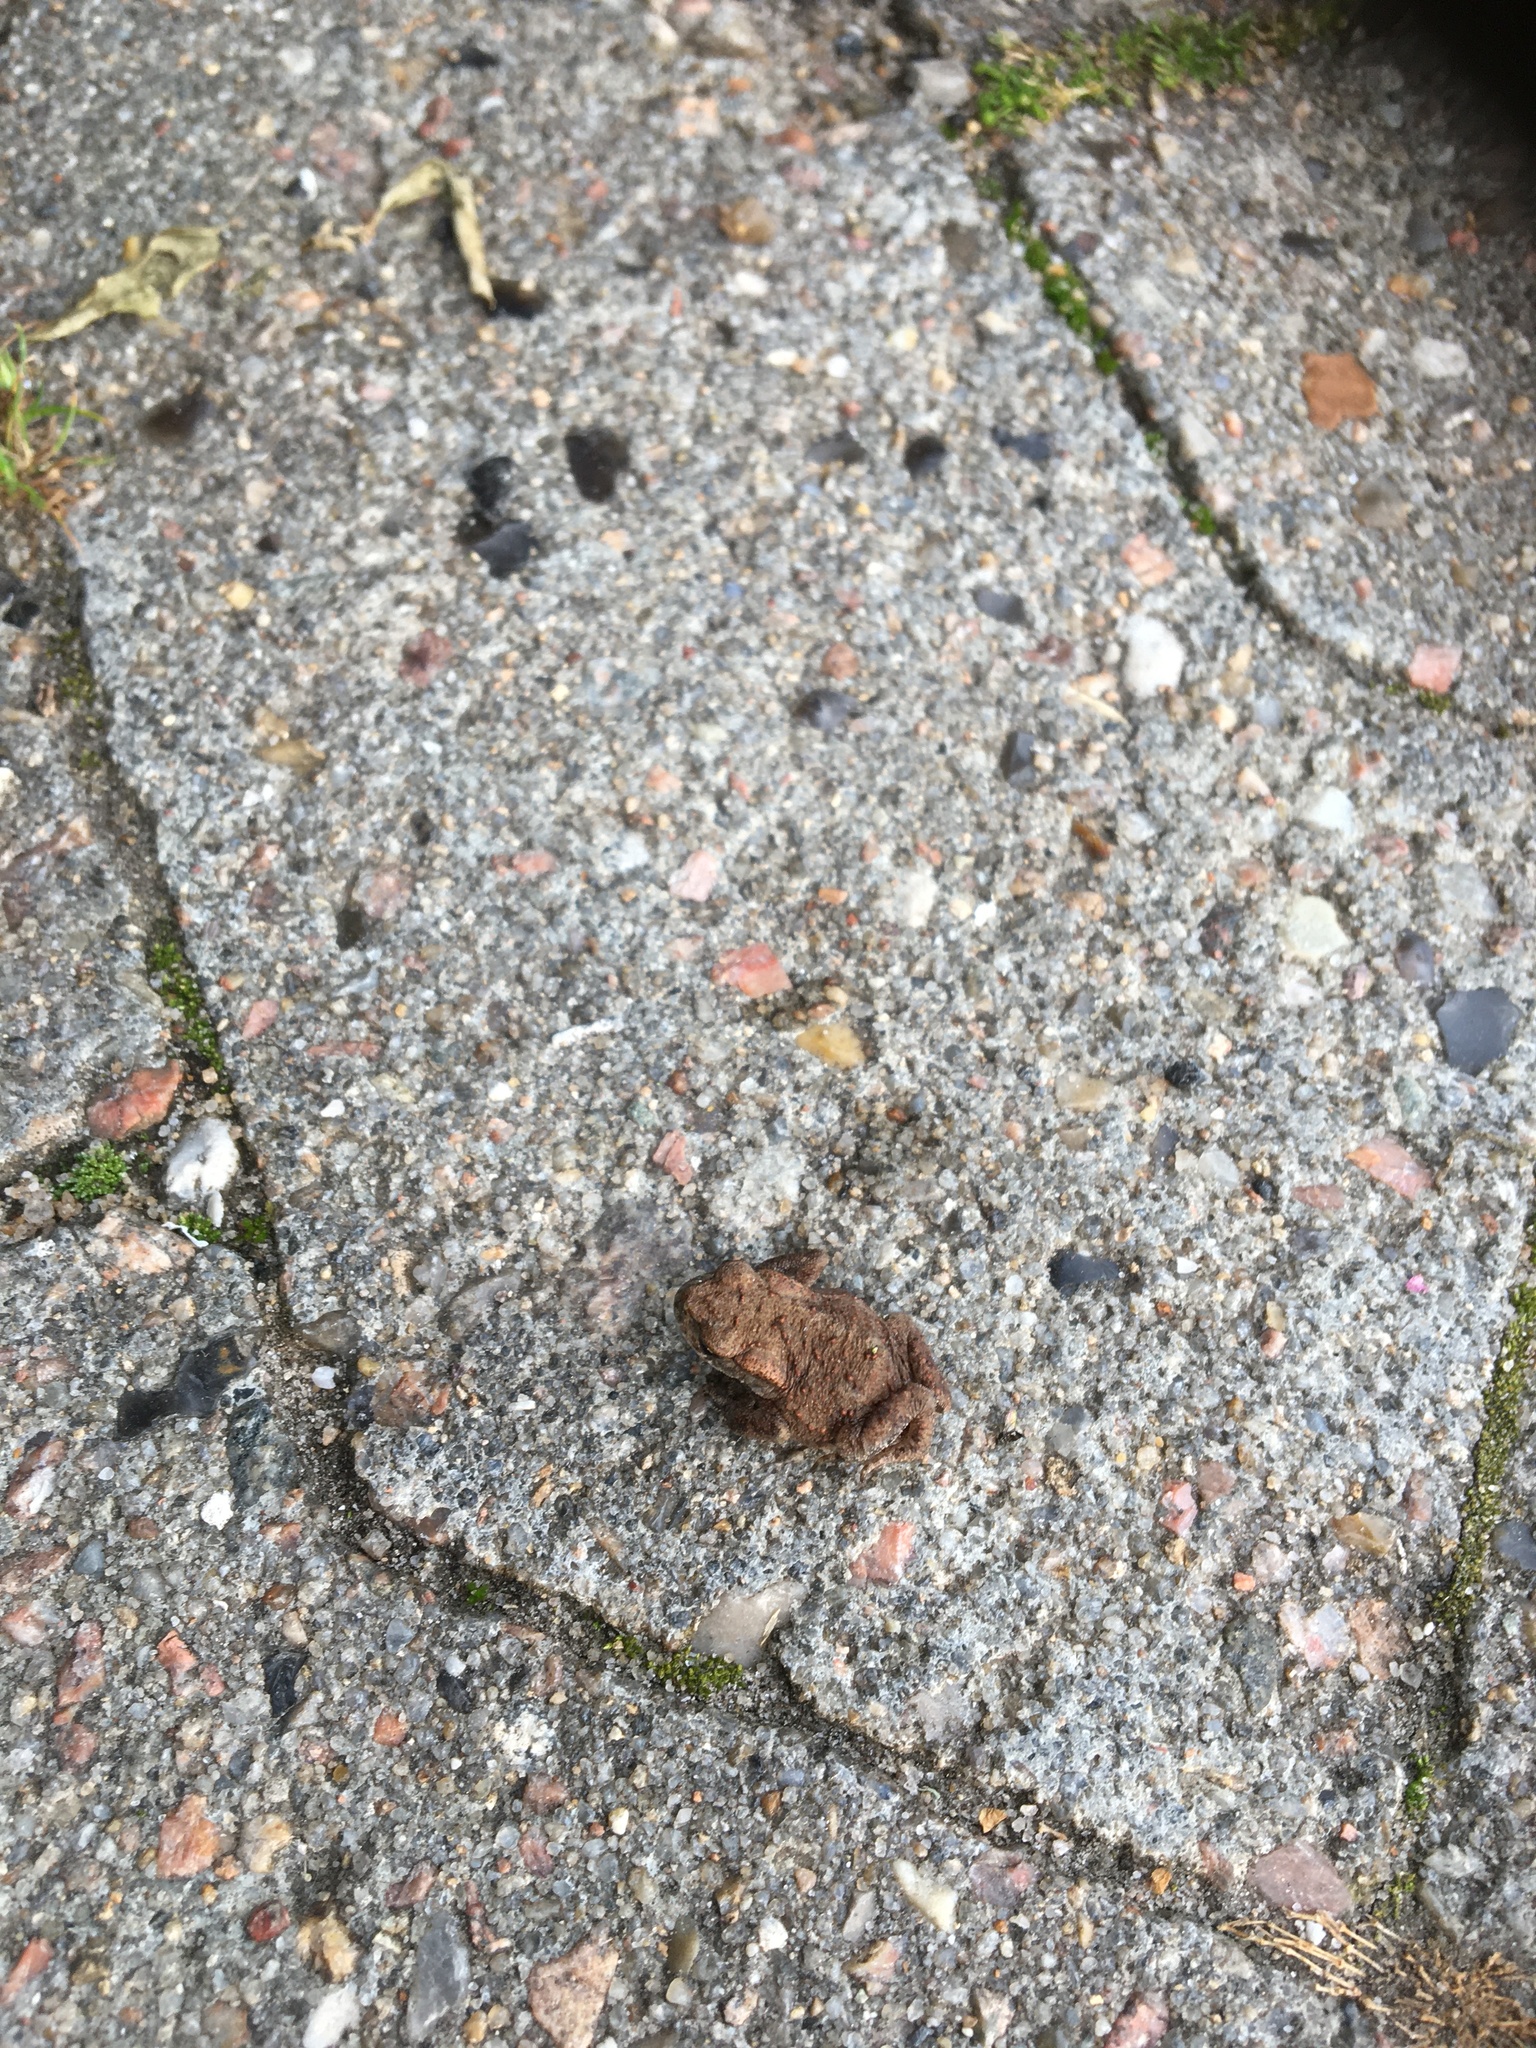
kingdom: Animalia
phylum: Chordata
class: Amphibia
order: Anura
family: Bufonidae
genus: Bufo
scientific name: Bufo bufo
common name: Common toad
